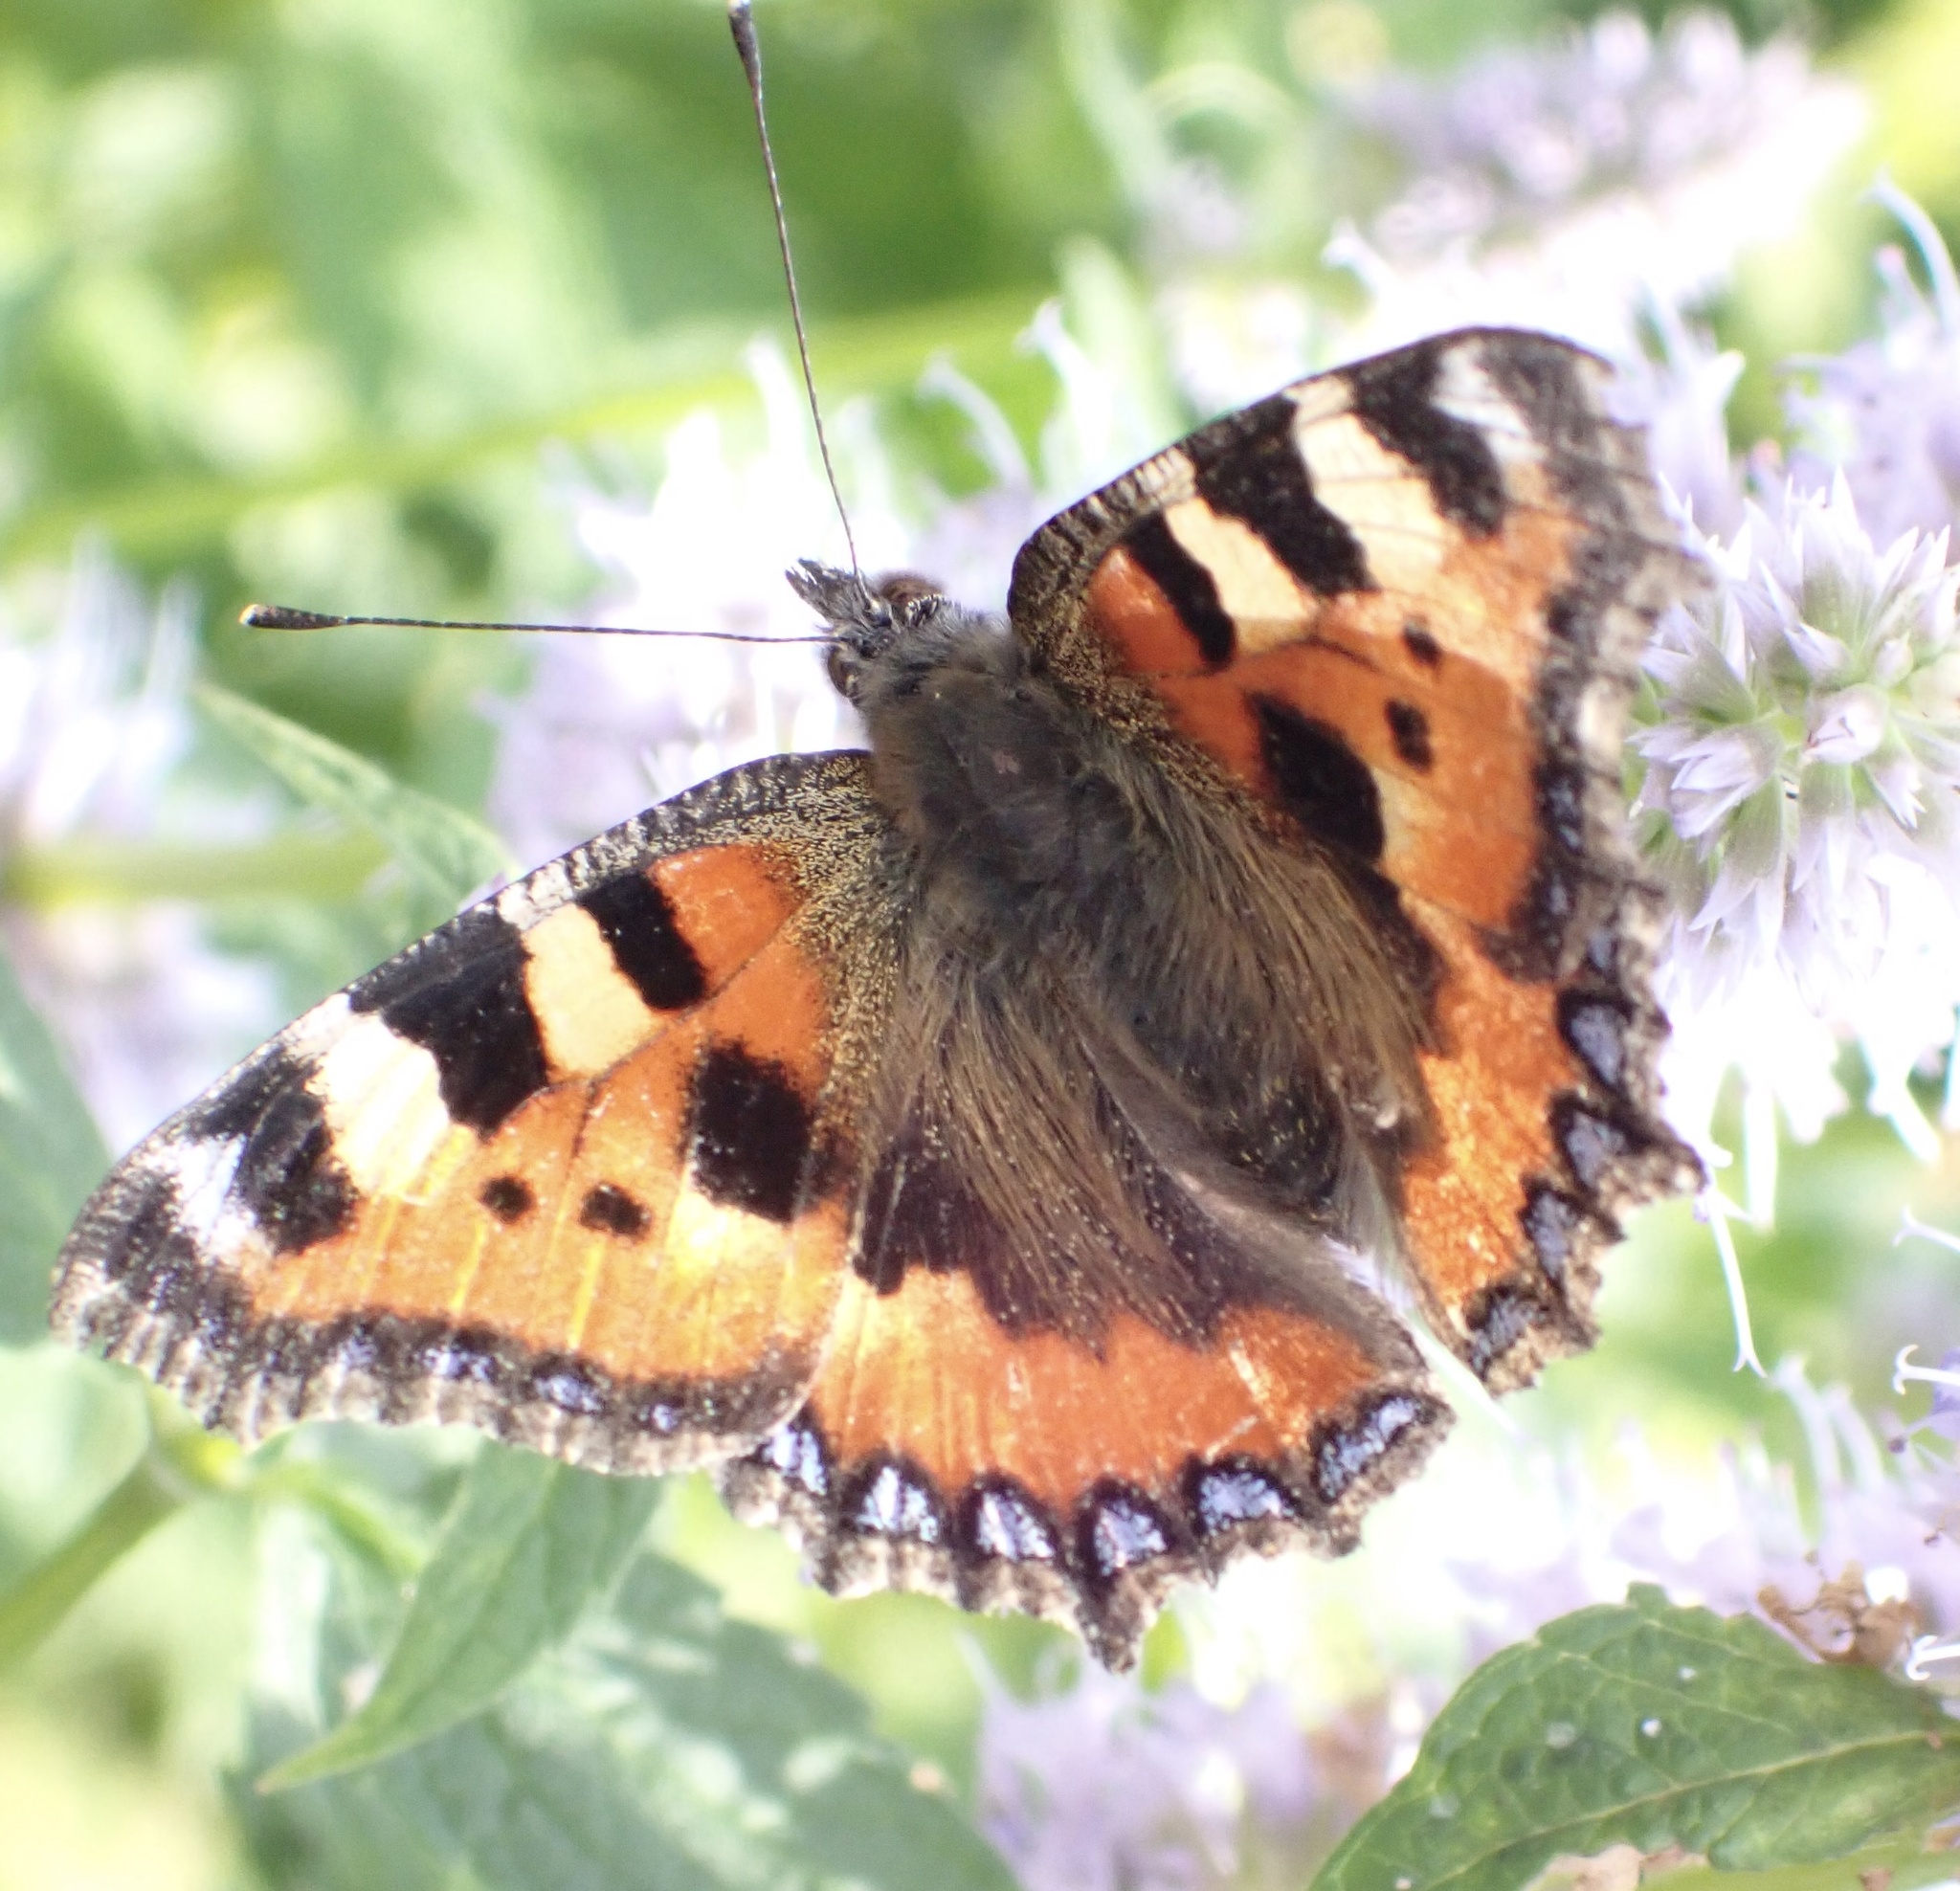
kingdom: Animalia
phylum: Arthropoda
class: Insecta
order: Lepidoptera
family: Nymphalidae
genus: Aglais
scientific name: Aglais urticae
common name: Small tortoiseshell
